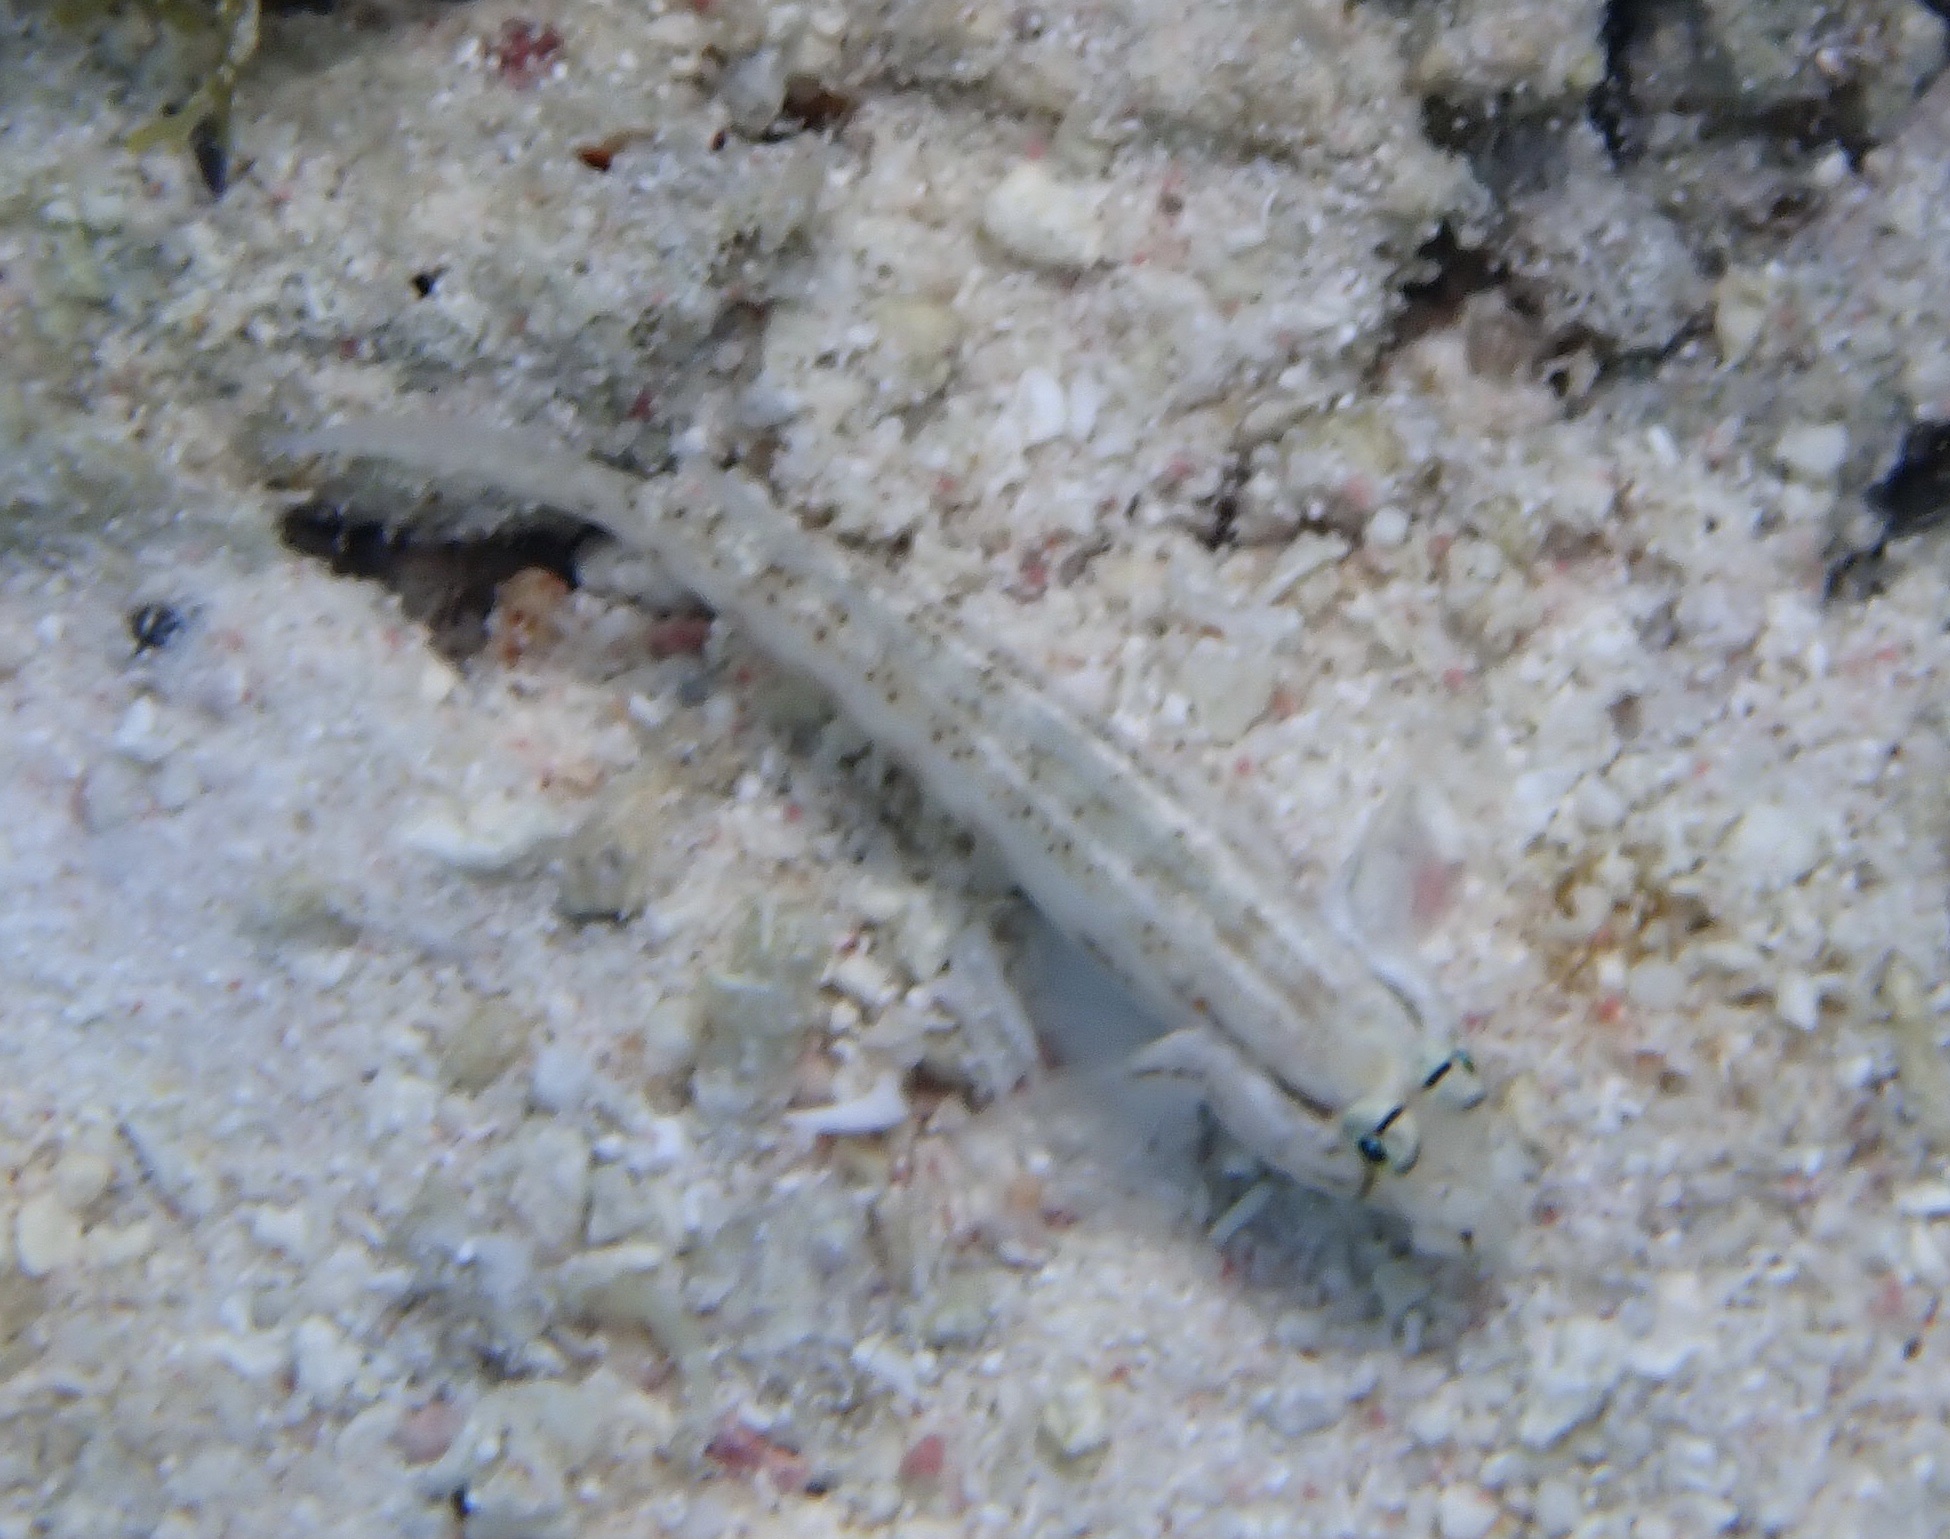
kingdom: Animalia
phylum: Chordata
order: Perciformes
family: Gobiidae
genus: Gnatholepis
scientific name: Gnatholepis thompsoni
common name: Goldspot goby
